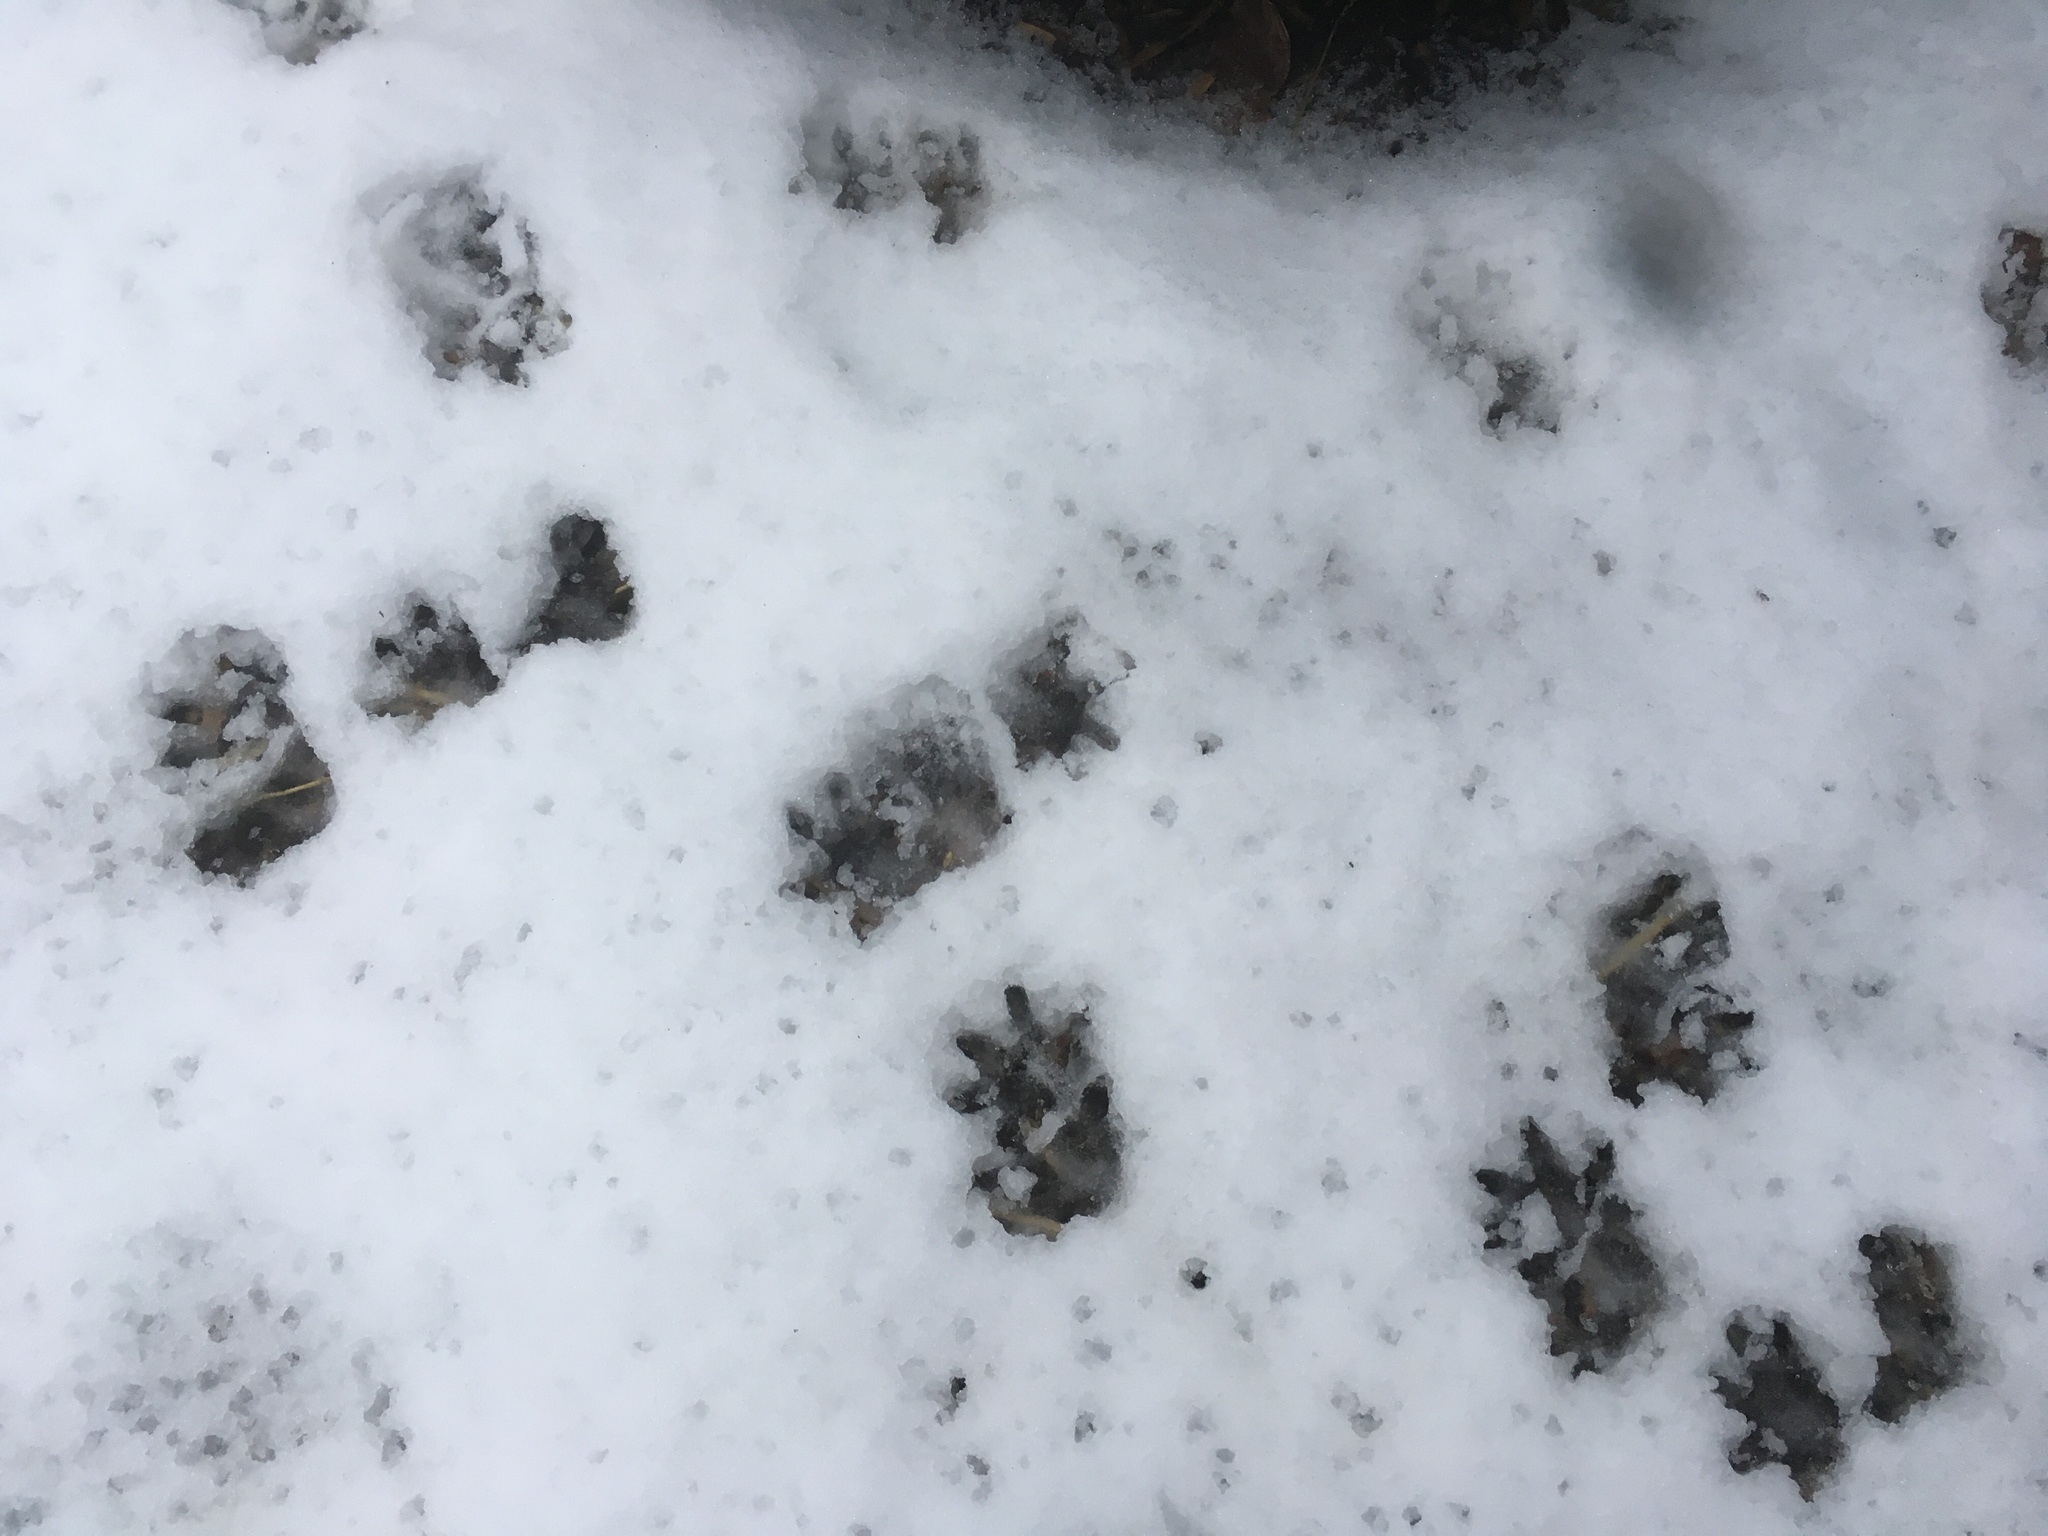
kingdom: Animalia
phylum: Chordata
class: Mammalia
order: Didelphimorphia
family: Didelphidae
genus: Didelphis
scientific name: Didelphis virginiana
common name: Virginia opossum
